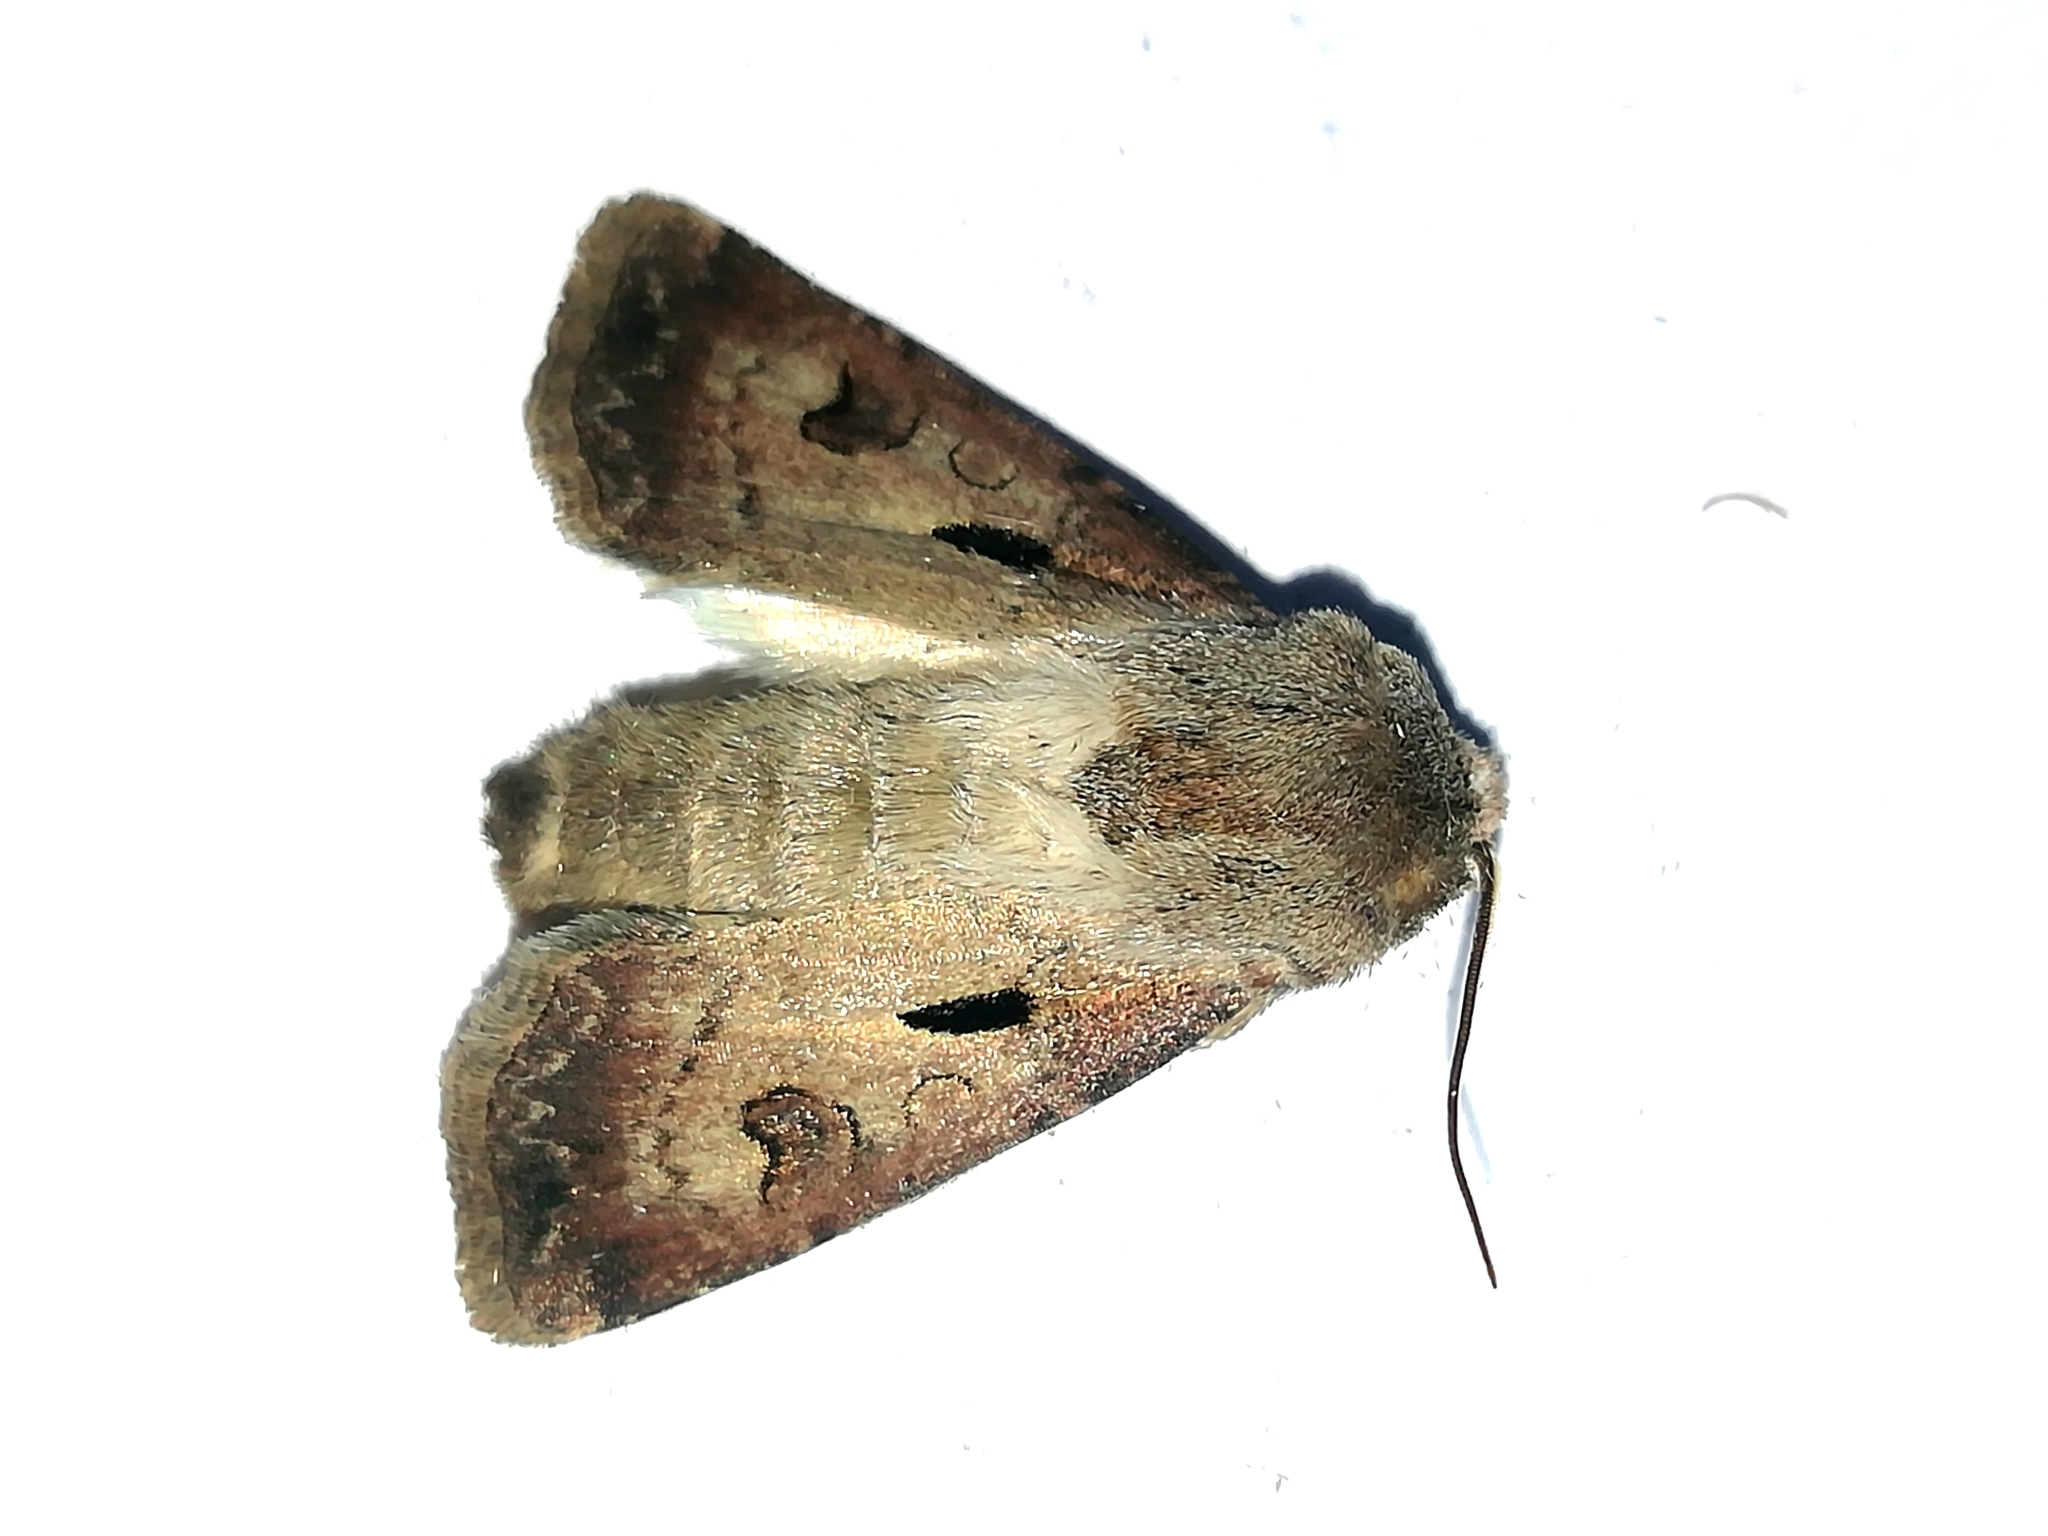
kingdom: Animalia
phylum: Arthropoda
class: Insecta
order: Lepidoptera
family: Noctuidae
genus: Agrotis
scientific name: Agrotis exclamationis
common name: Heart and dart
